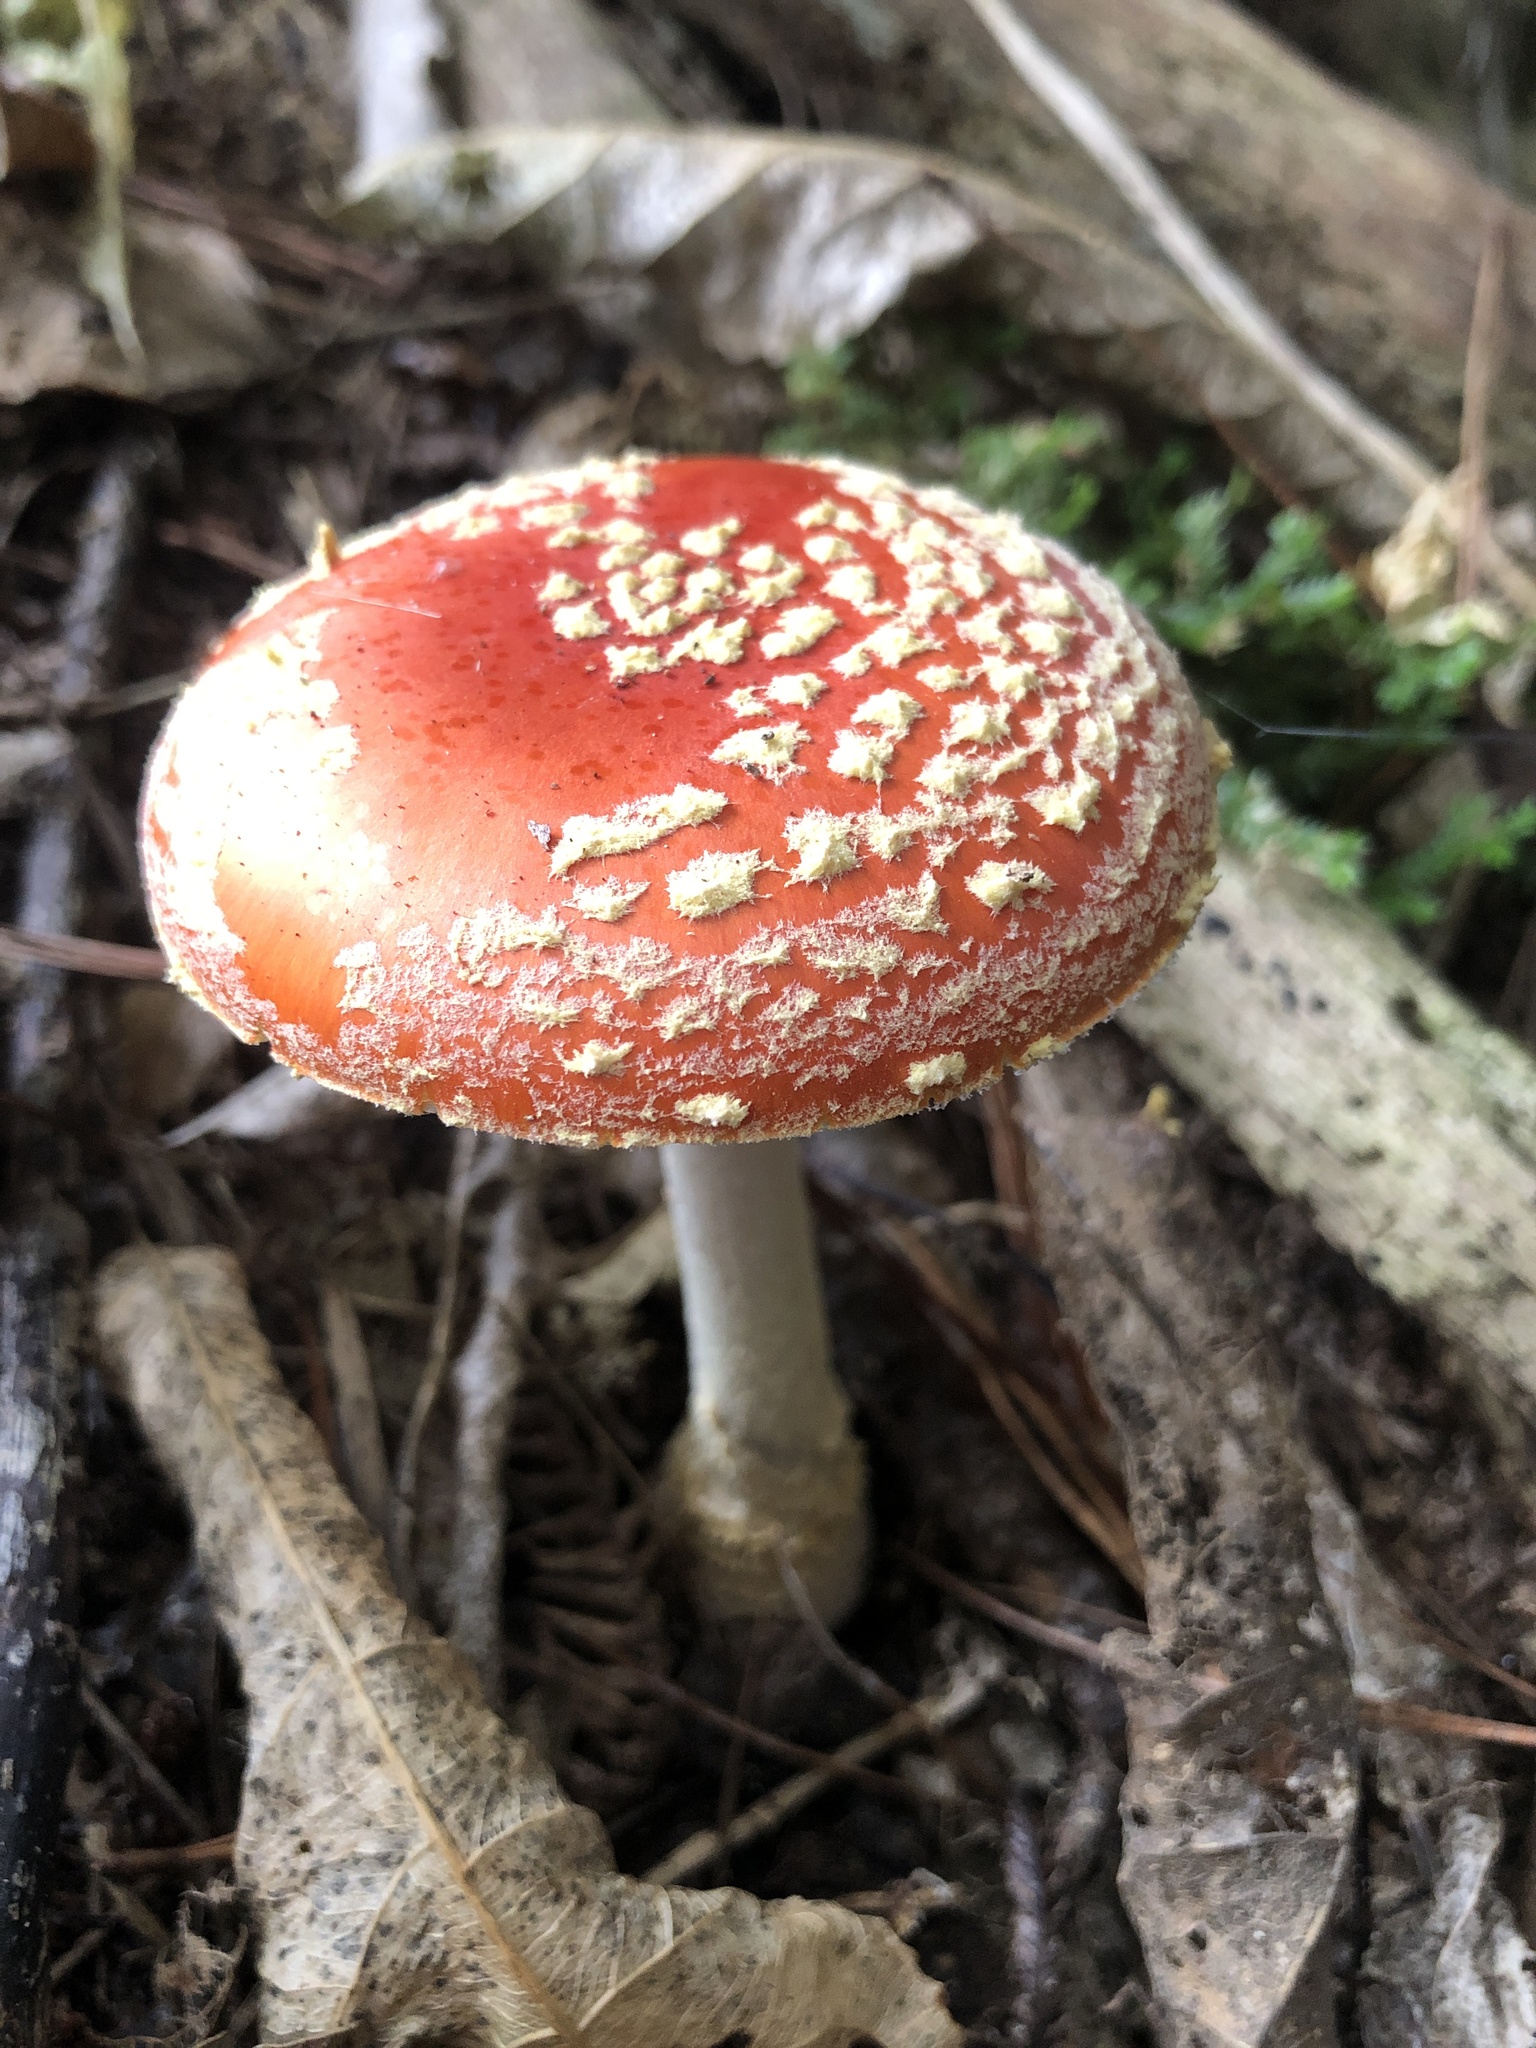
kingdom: Fungi
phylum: Basidiomycota
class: Agaricomycetes
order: Agaricales
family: Amanitaceae
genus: Amanita
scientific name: Amanita muscaria
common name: Fly agaric
